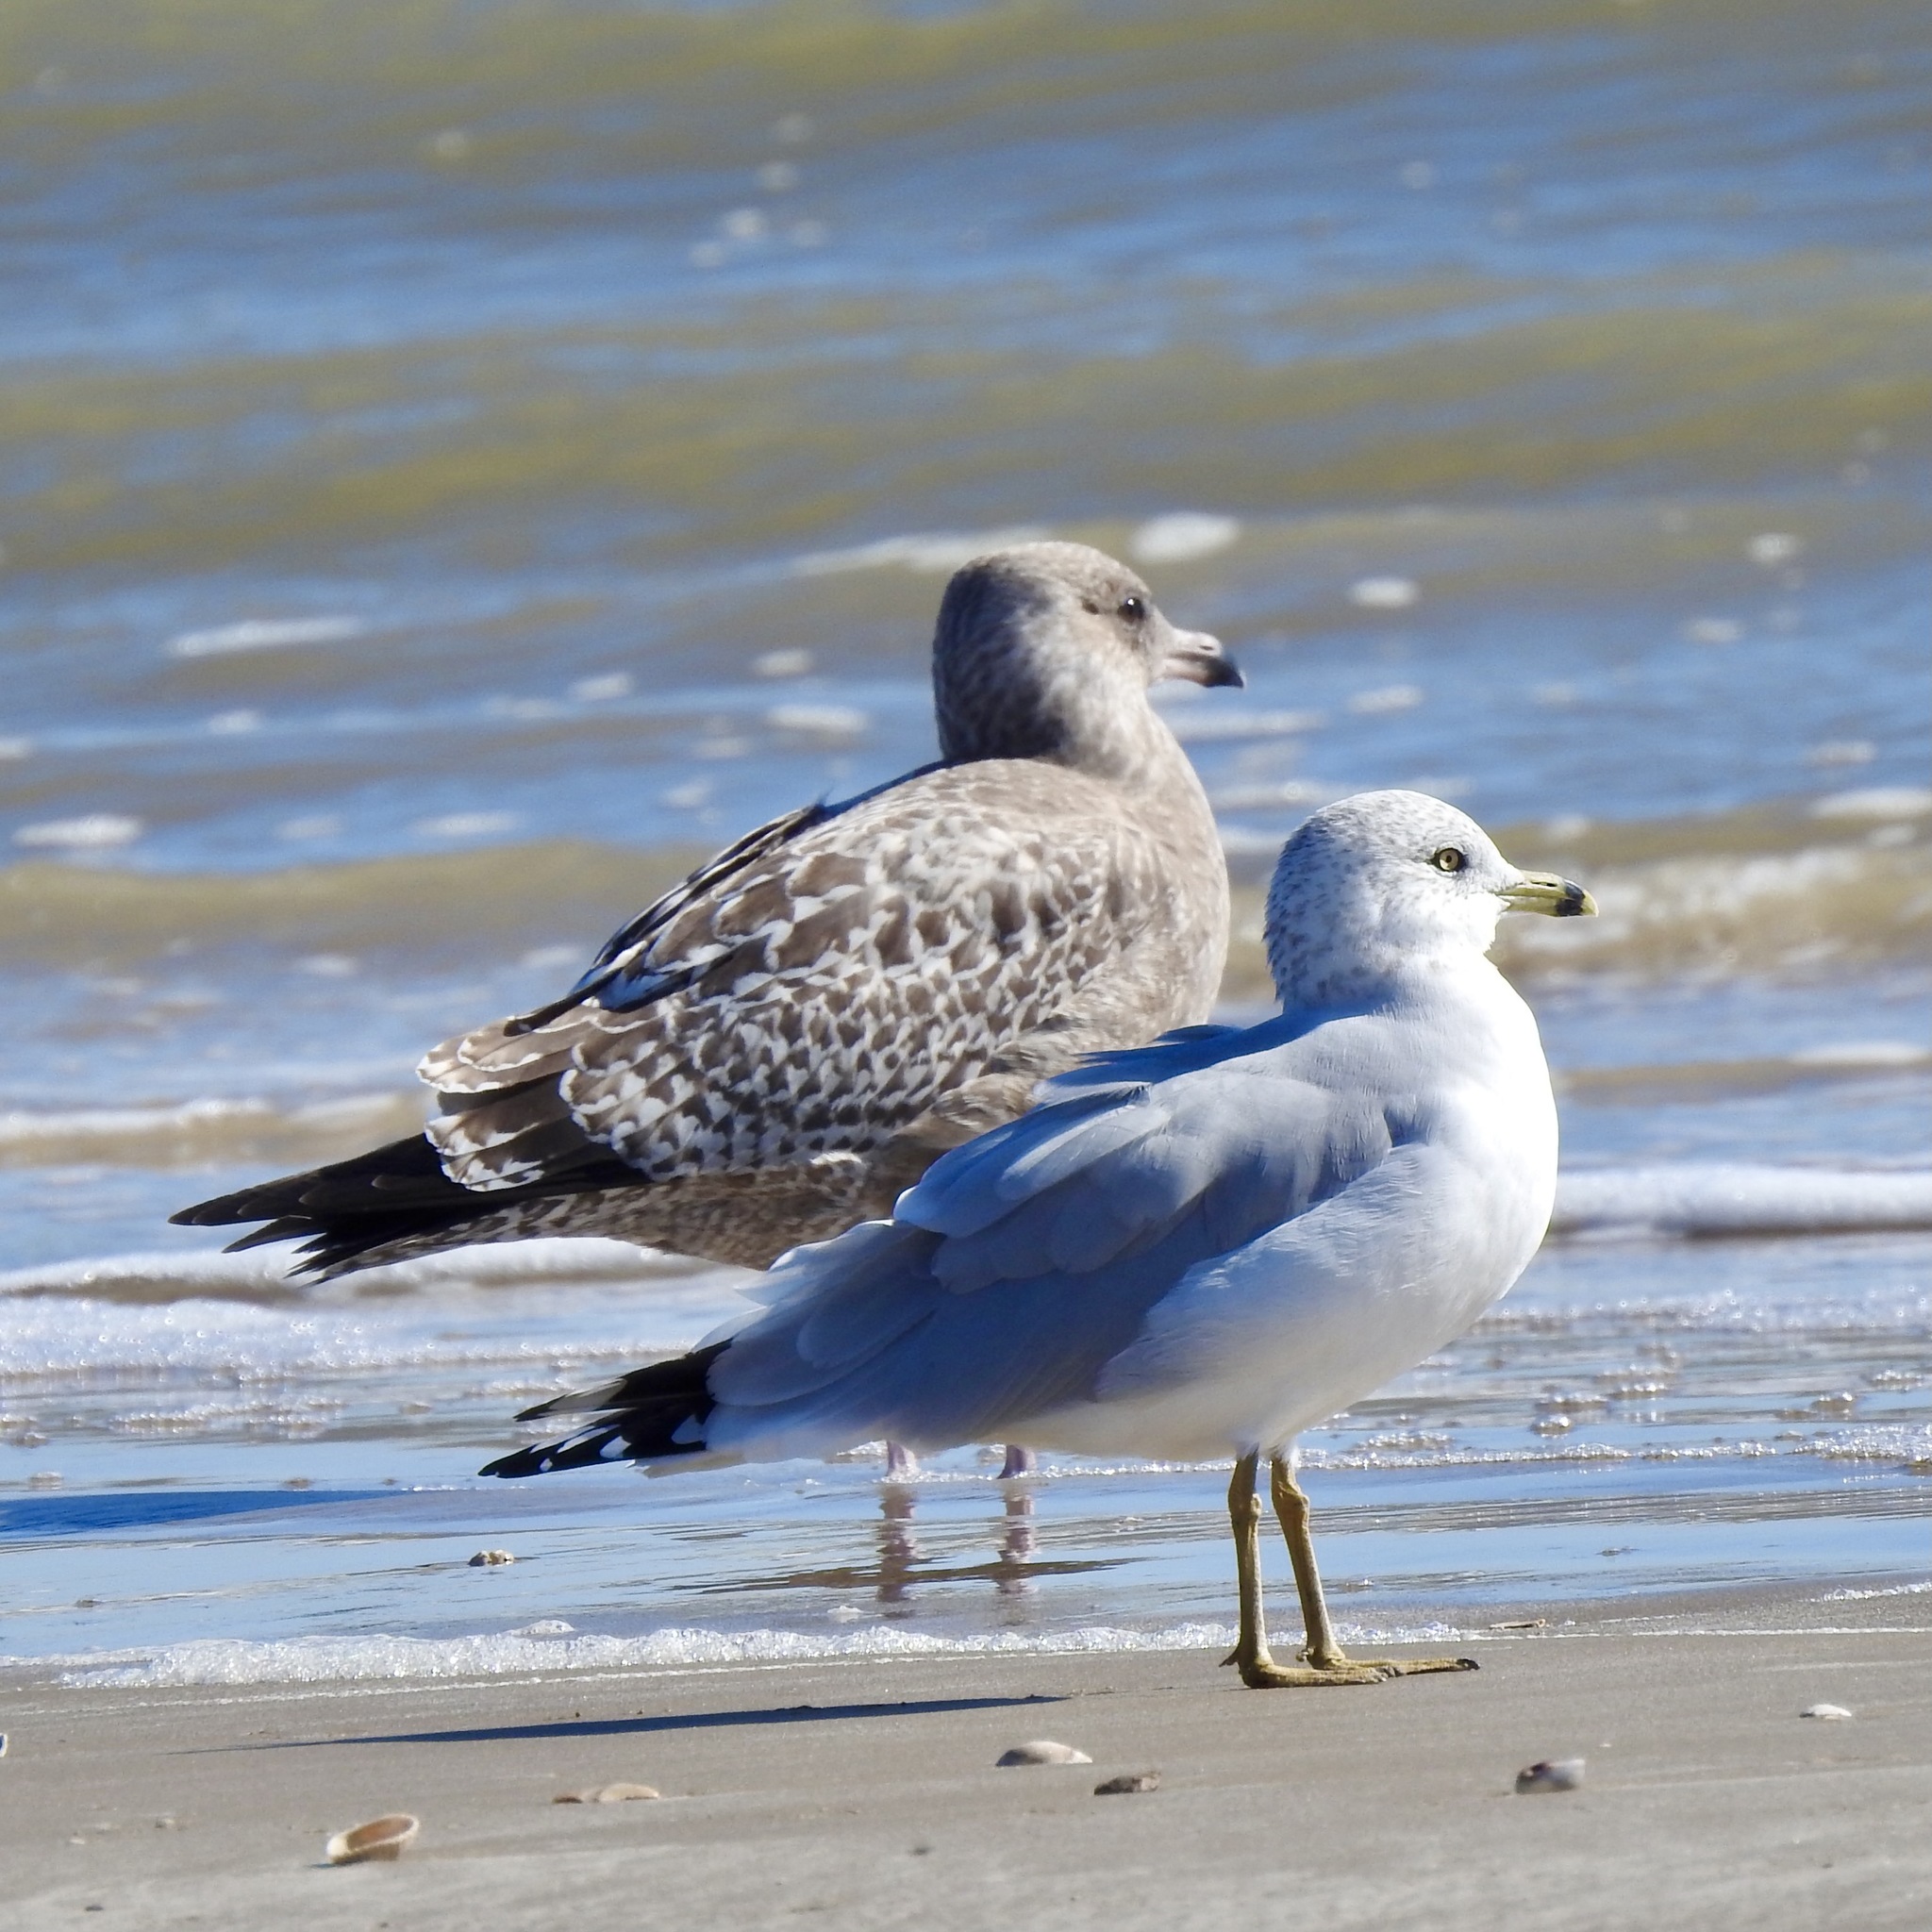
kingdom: Animalia
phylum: Chordata
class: Aves
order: Charadriiformes
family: Laridae
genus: Larus
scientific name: Larus delawarensis
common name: Ring-billed gull
